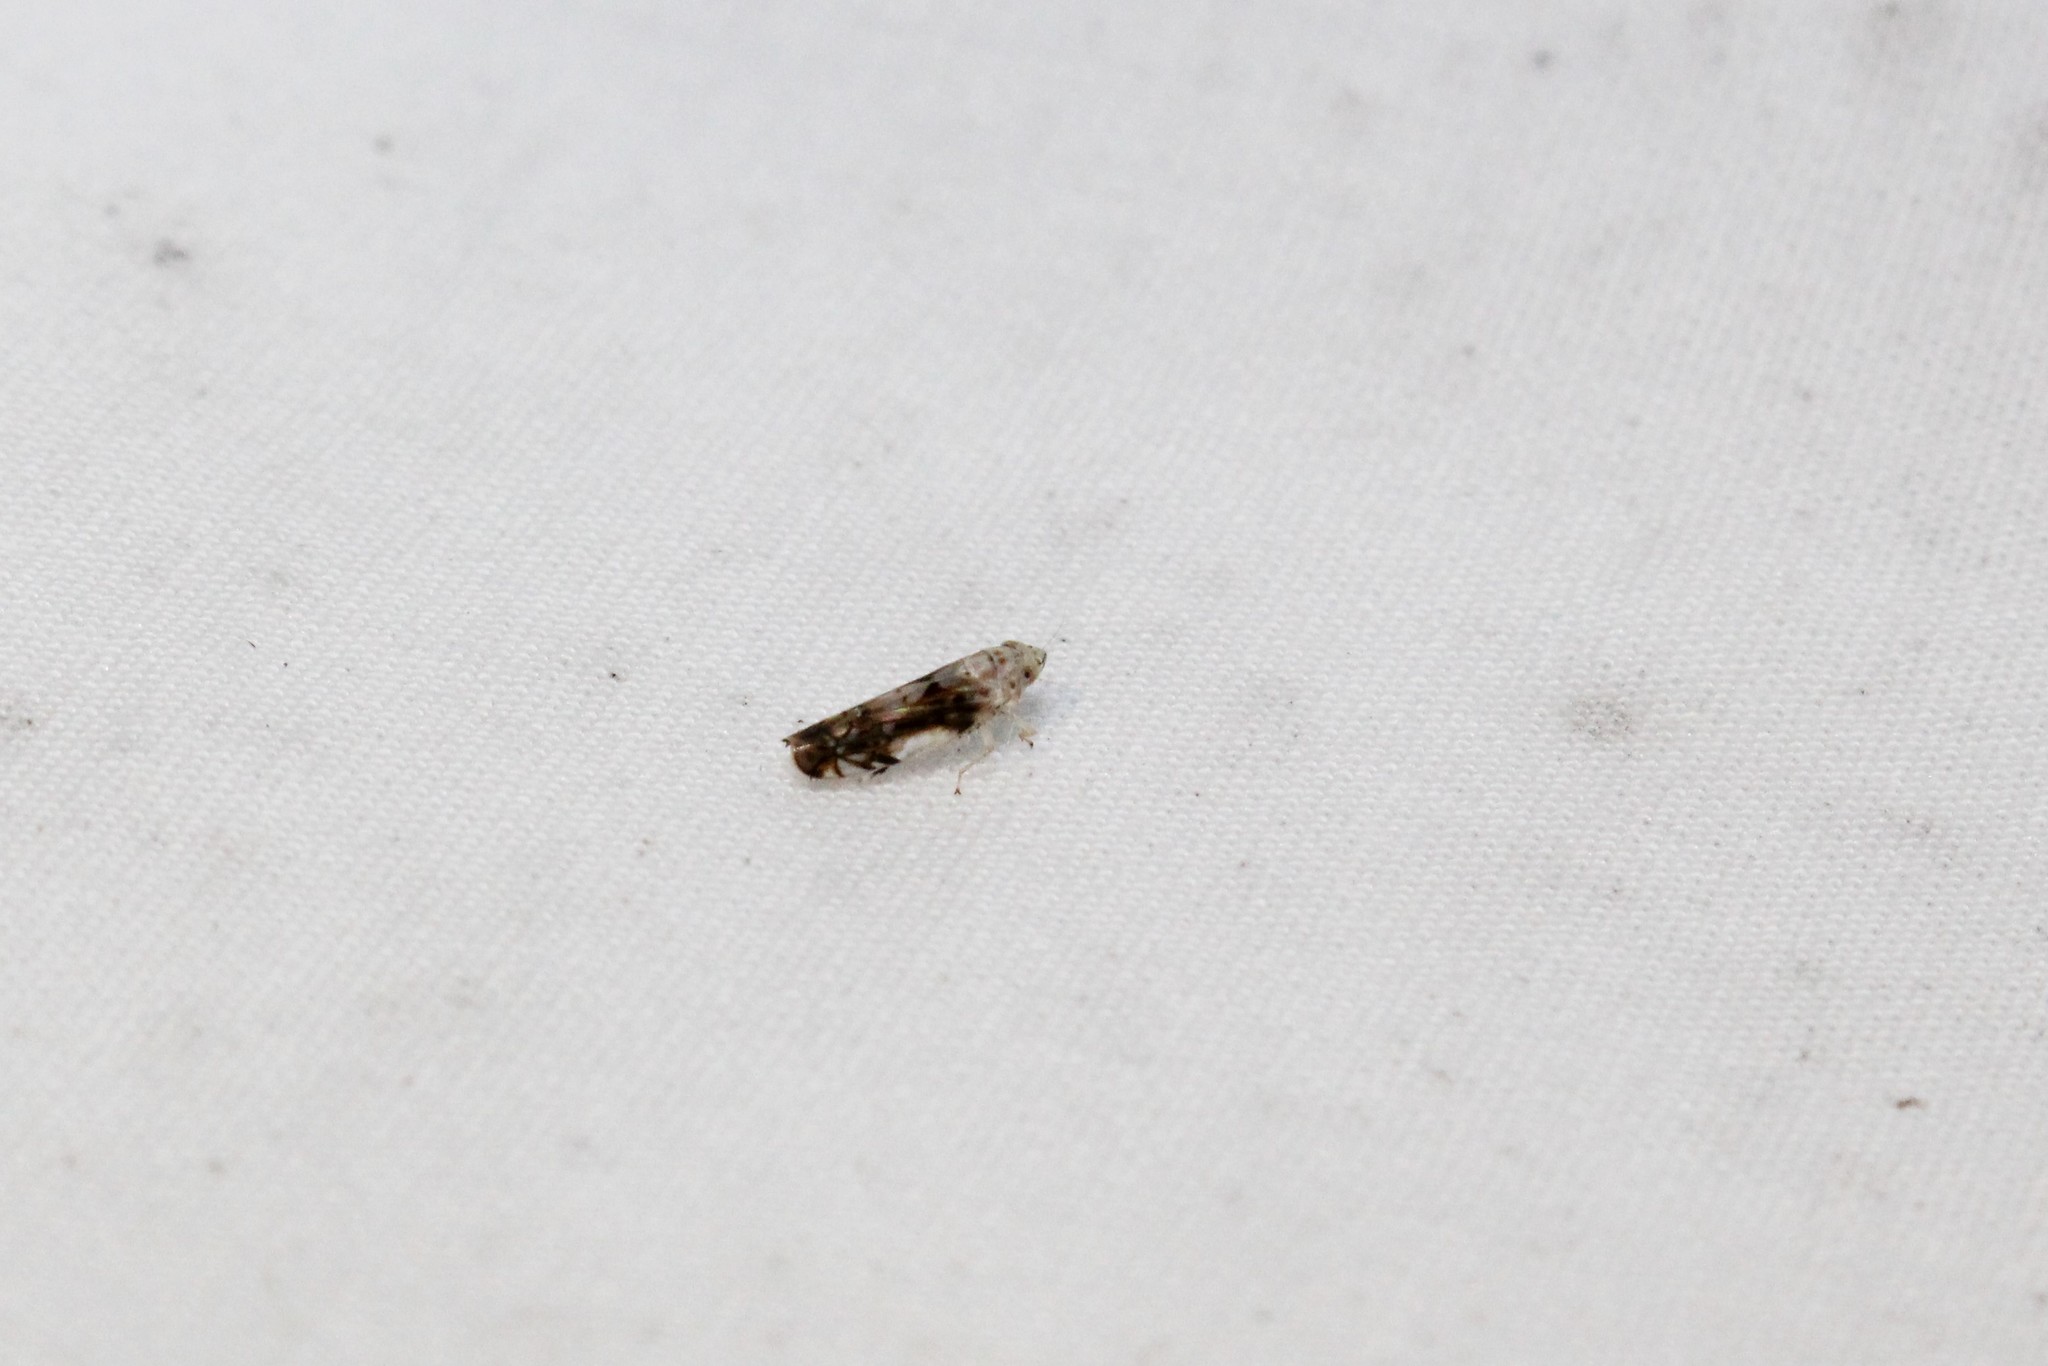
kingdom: Animalia
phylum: Arthropoda
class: Insecta
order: Hemiptera
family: Cicadellidae
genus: Scaphoideus
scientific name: Scaphoideus intricatus
